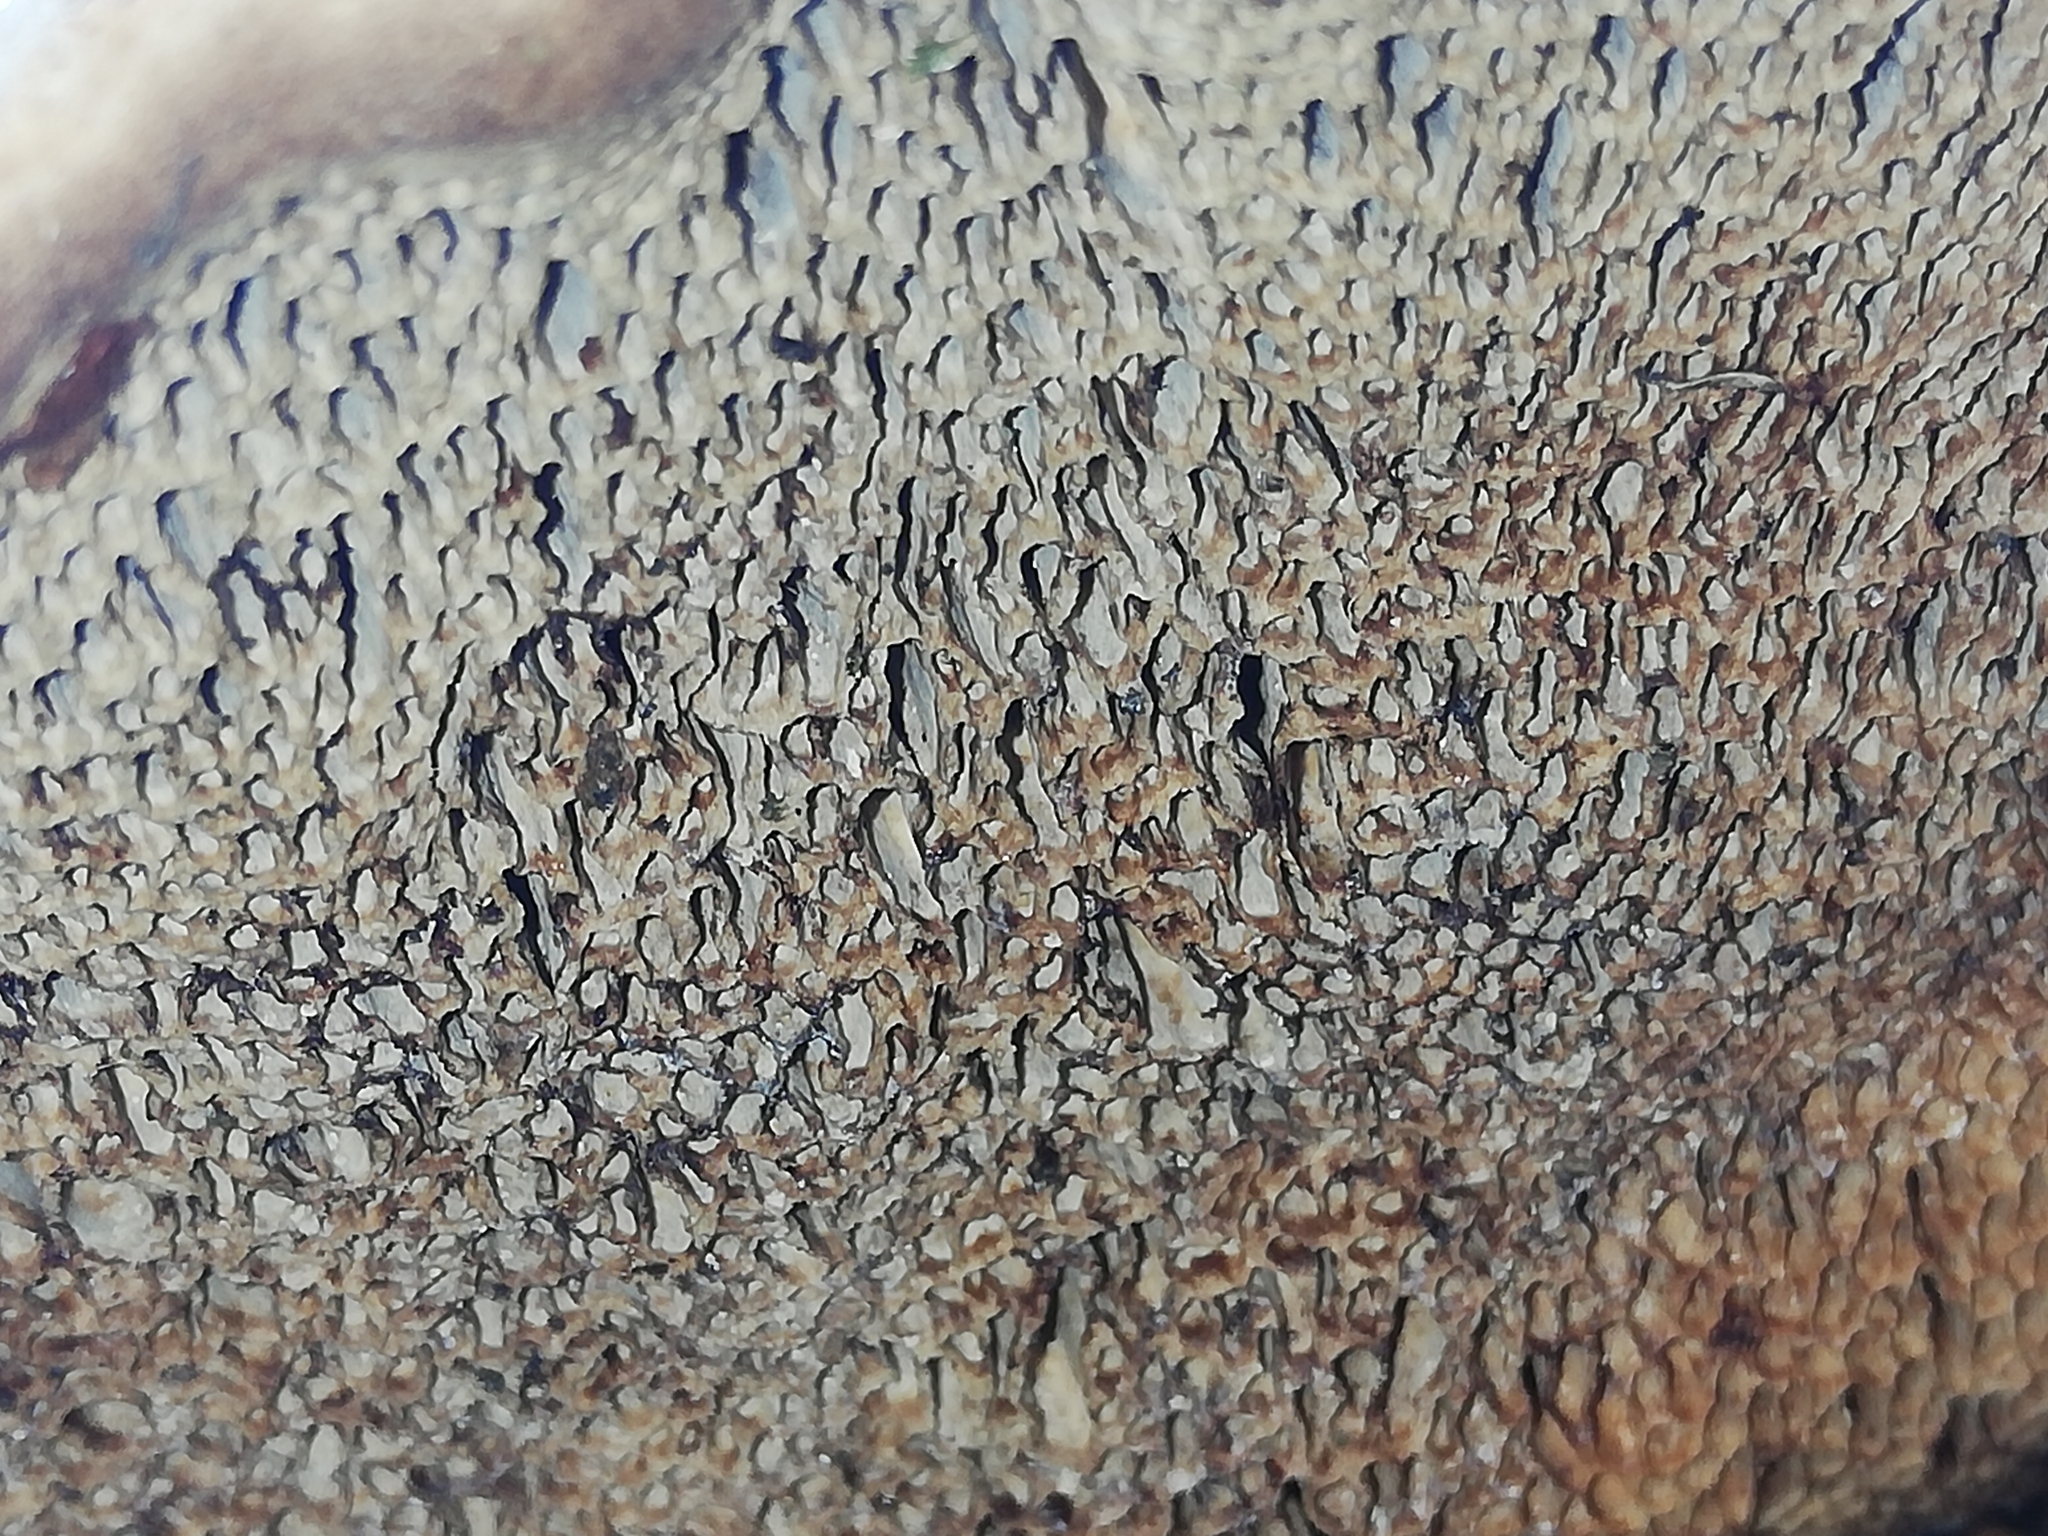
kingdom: Fungi
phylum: Basidiomycota
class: Agaricomycetes
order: Polyporales
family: Polyporaceae
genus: Daedaleopsis
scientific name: Daedaleopsis confragosa
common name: Blushing bracket
